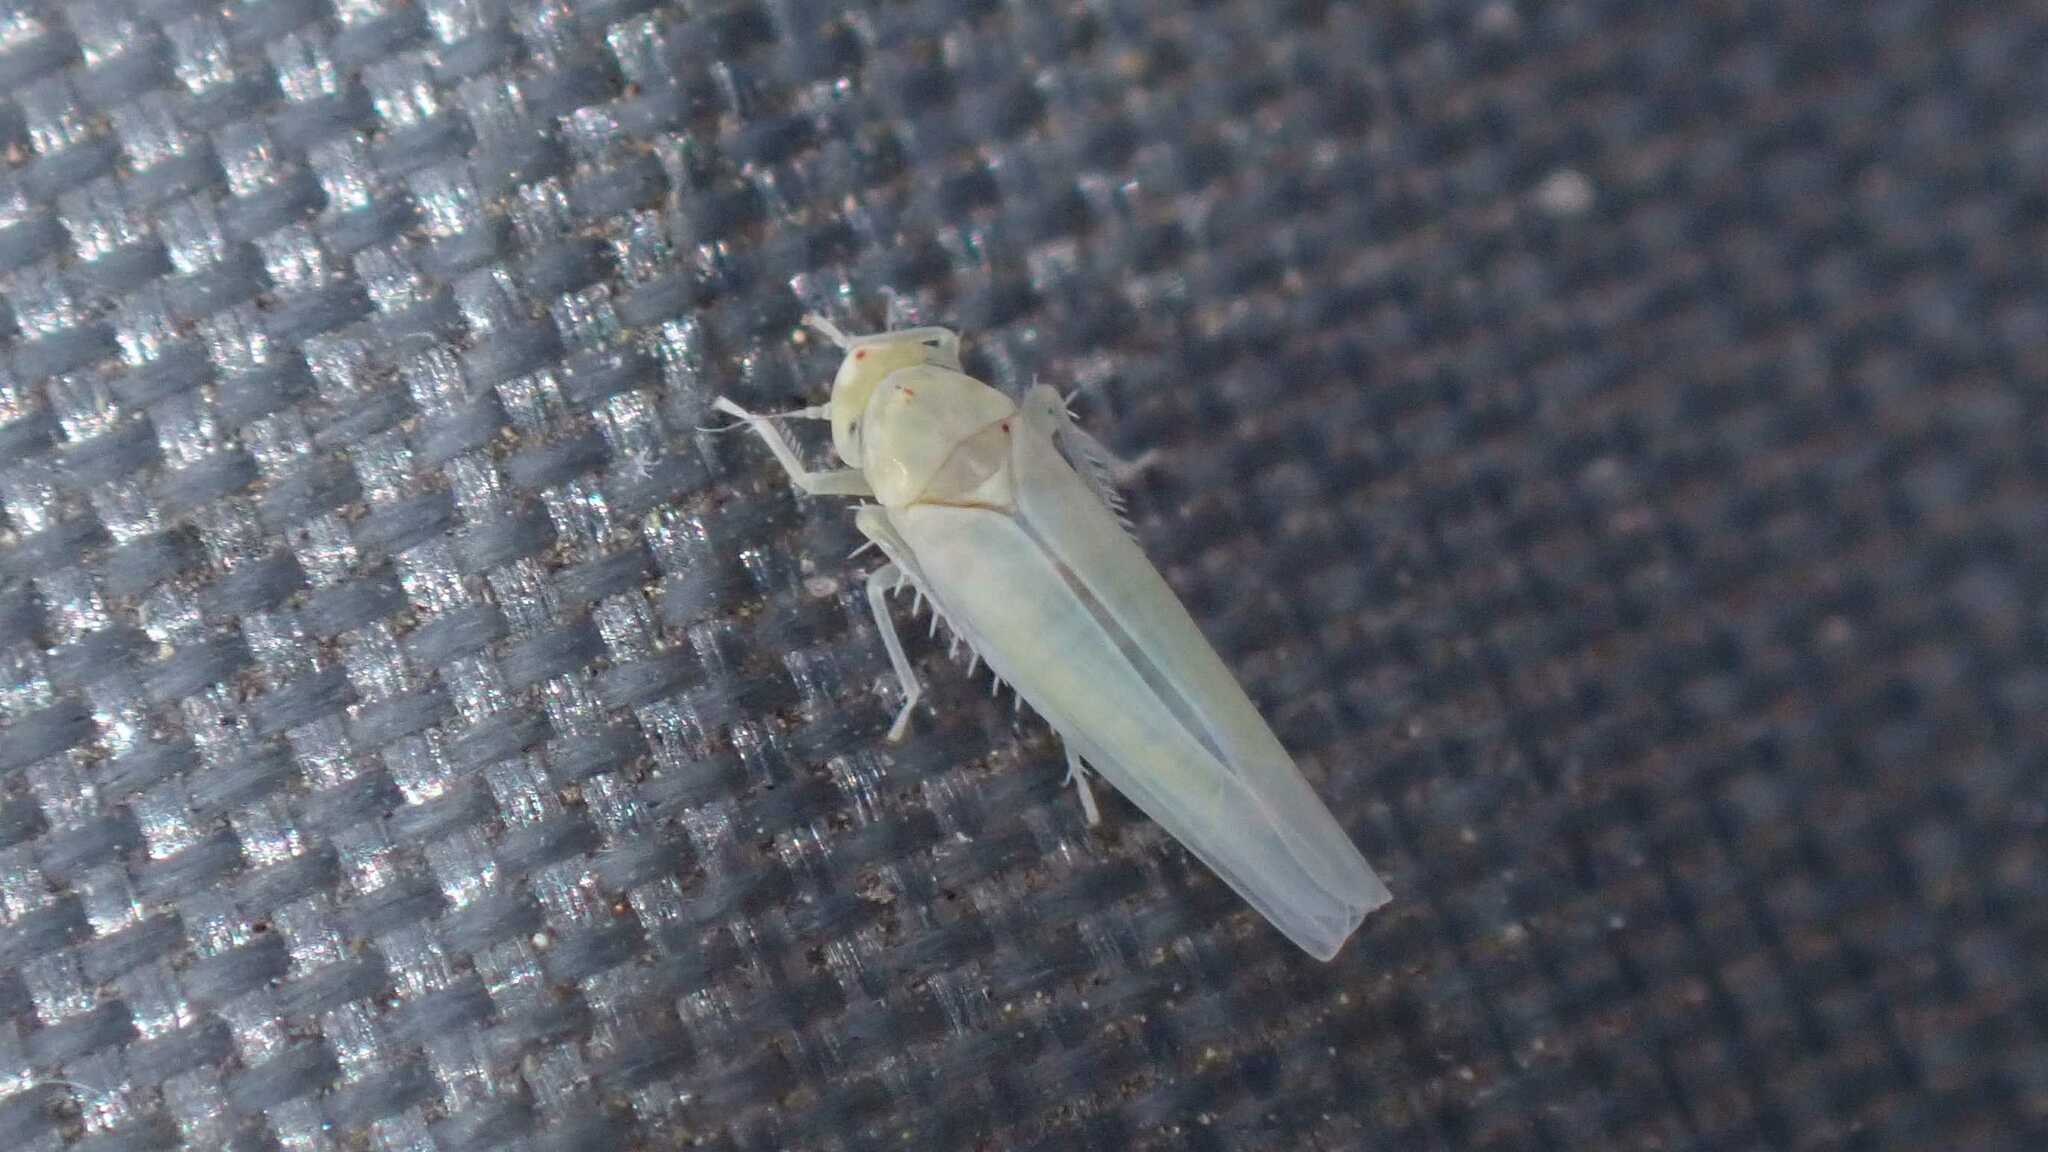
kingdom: Animalia
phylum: Arthropoda
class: Insecta
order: Hemiptera
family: Cicadellidae
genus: Zygina
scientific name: Zygina nivea
